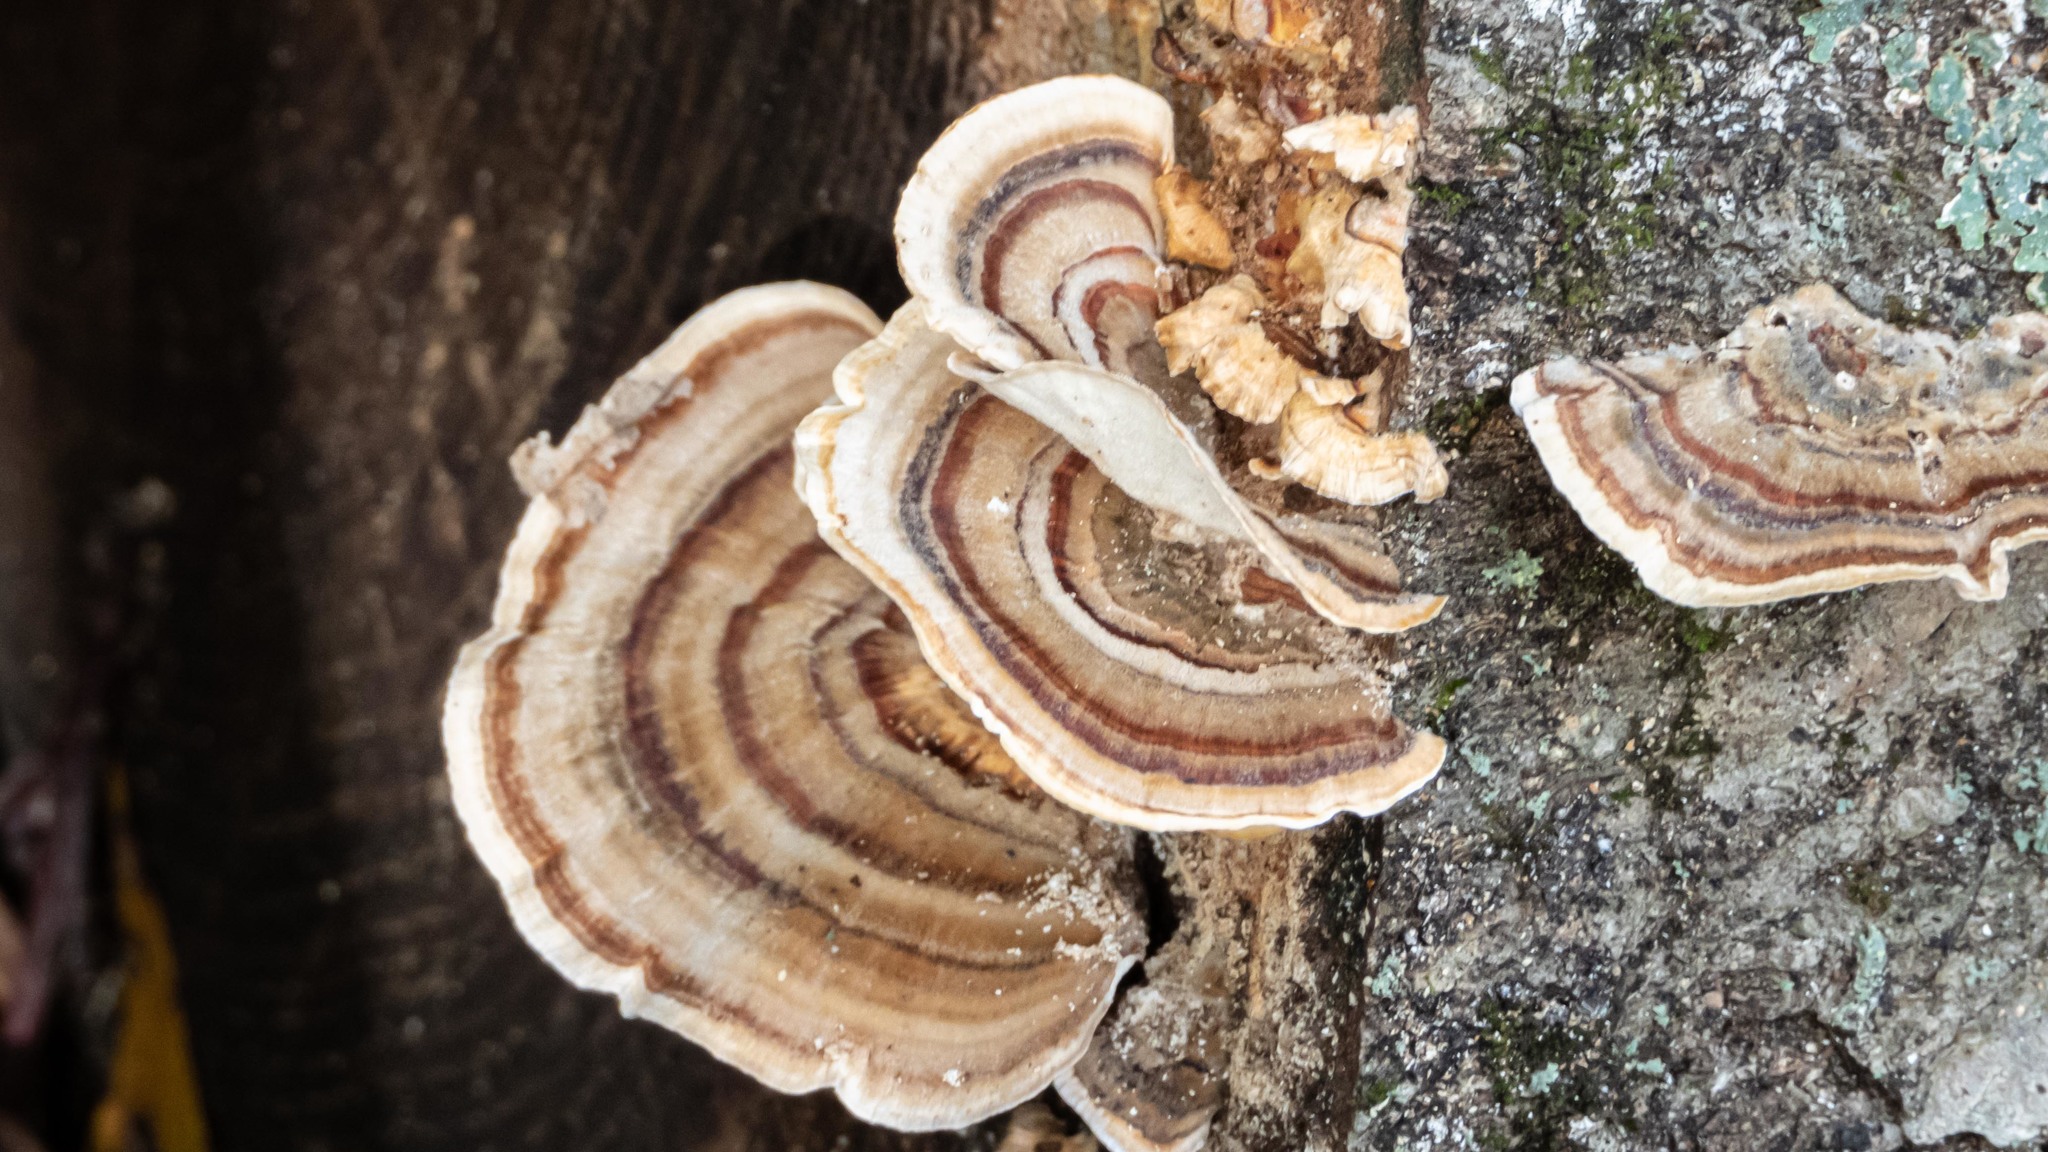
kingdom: Fungi
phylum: Basidiomycota
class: Agaricomycetes
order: Polyporales
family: Polyporaceae
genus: Trametes
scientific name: Trametes versicolor
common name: Turkeytail
